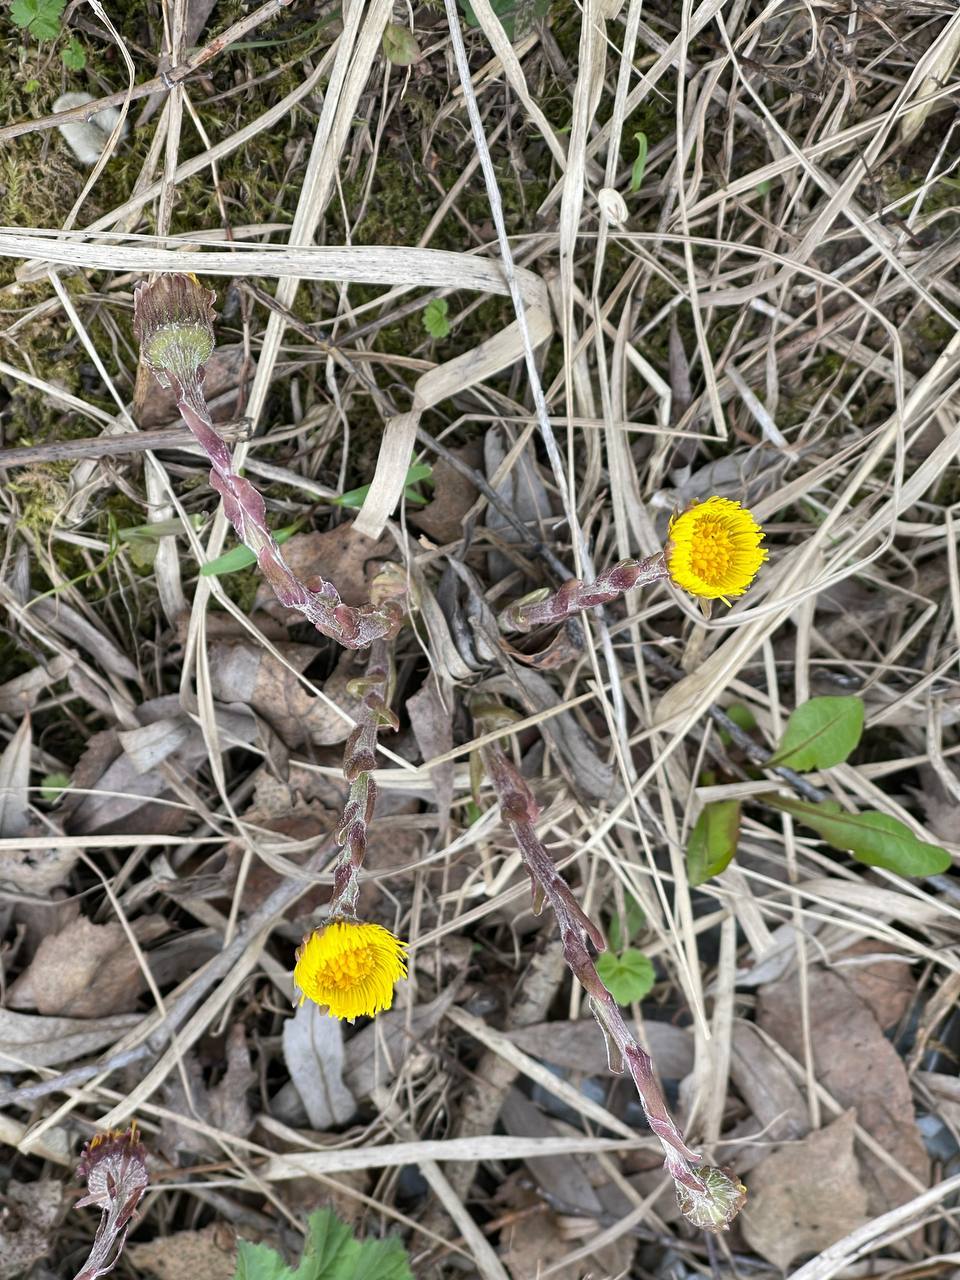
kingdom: Plantae
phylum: Tracheophyta
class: Magnoliopsida
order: Asterales
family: Asteraceae
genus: Tussilago
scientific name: Tussilago farfara
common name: Coltsfoot
